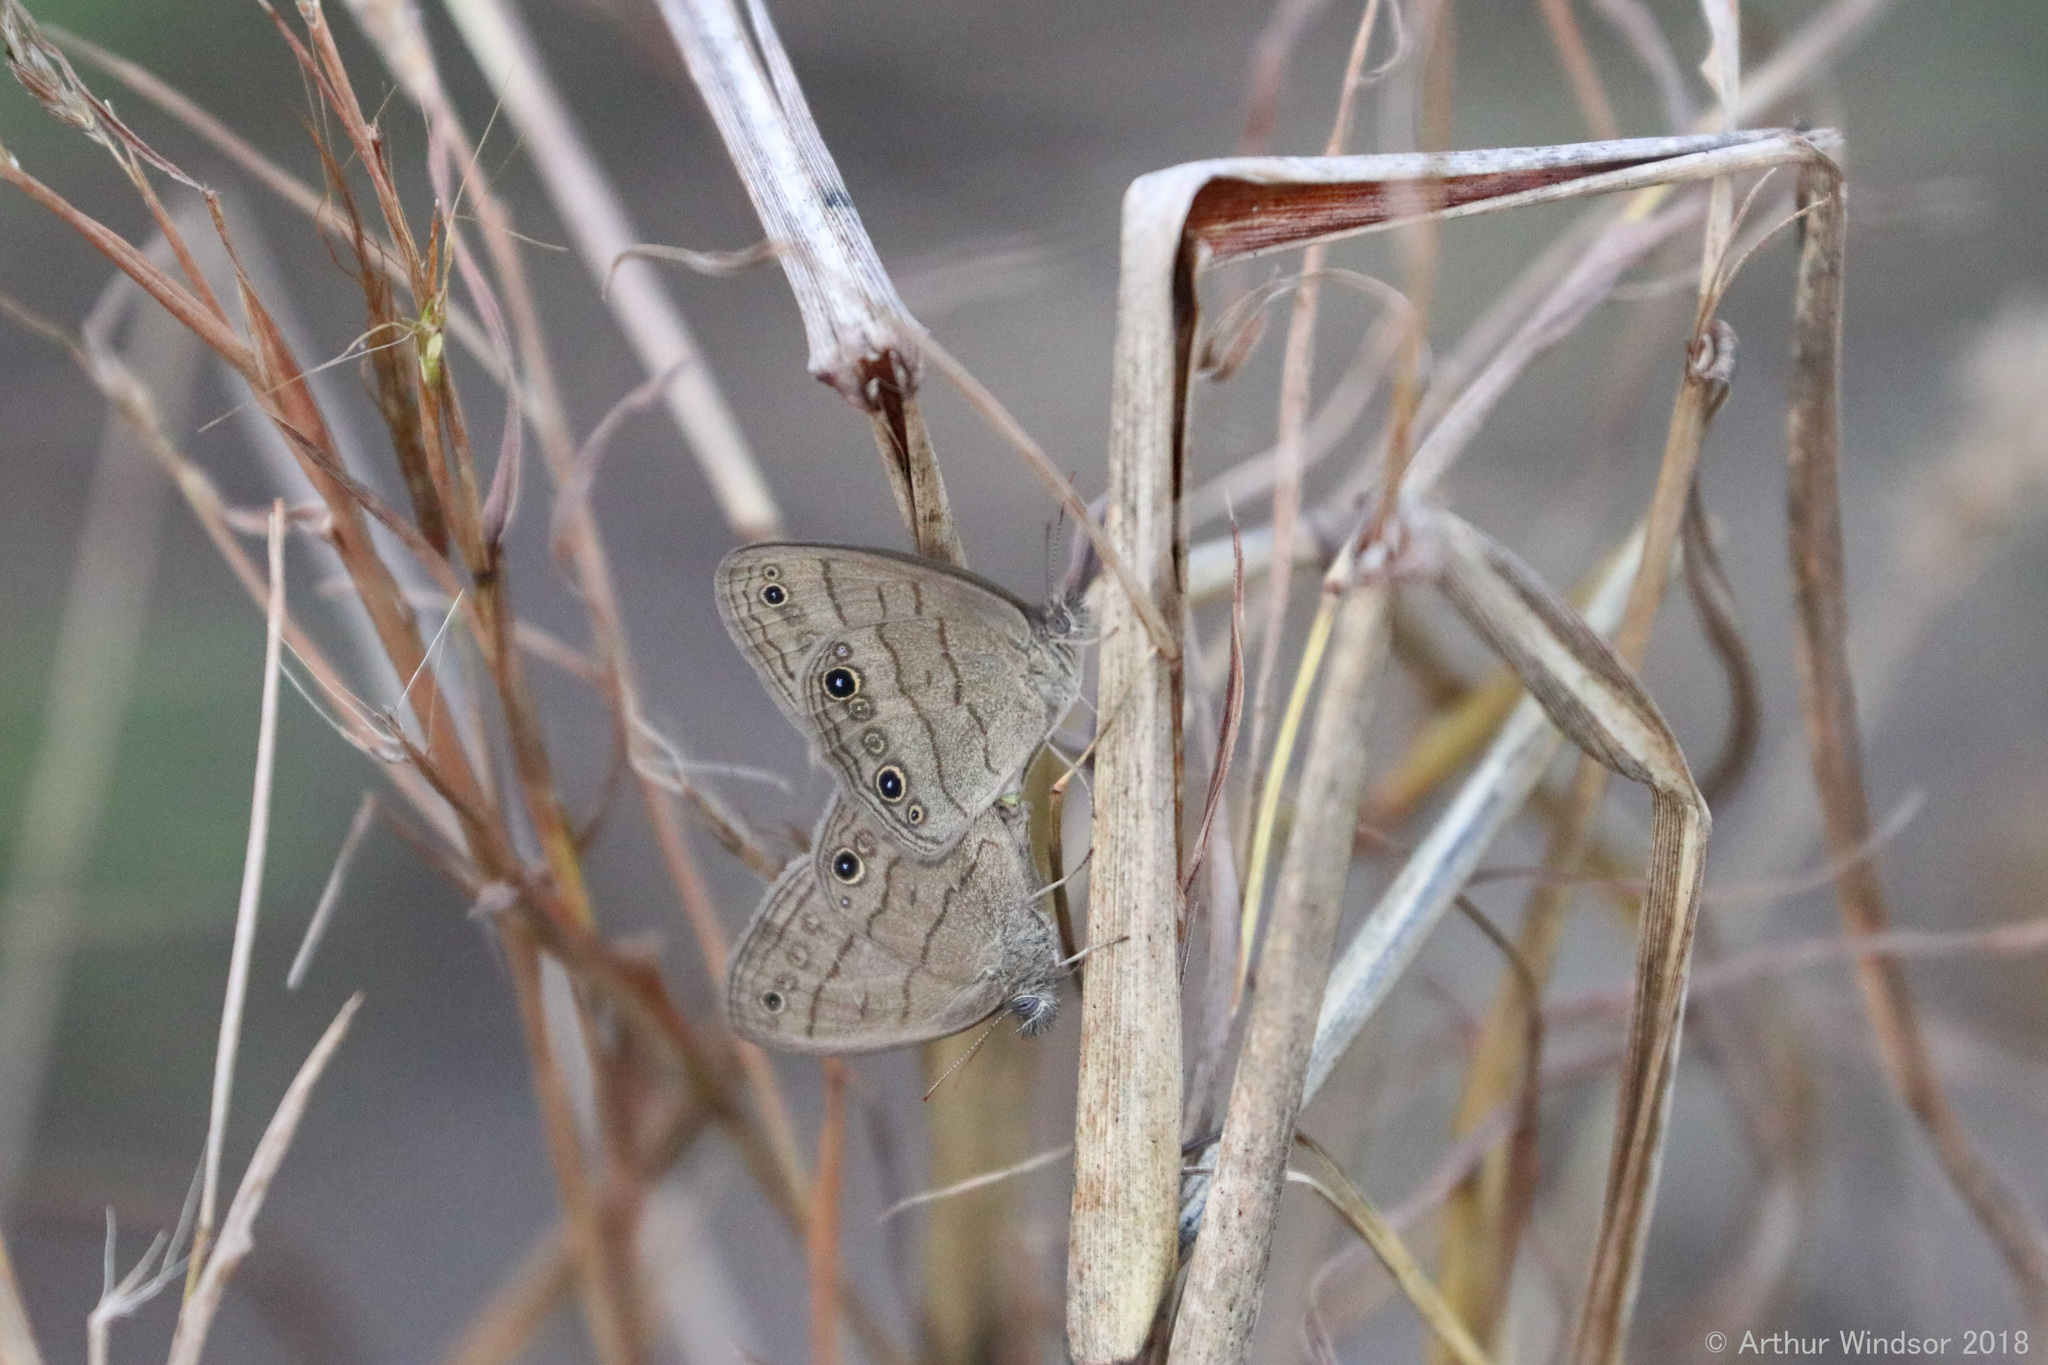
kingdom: Animalia
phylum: Arthropoda
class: Insecta
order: Lepidoptera
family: Nymphalidae
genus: Hermeuptychia
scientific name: Hermeuptychia hermes
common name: Hermes satyr
